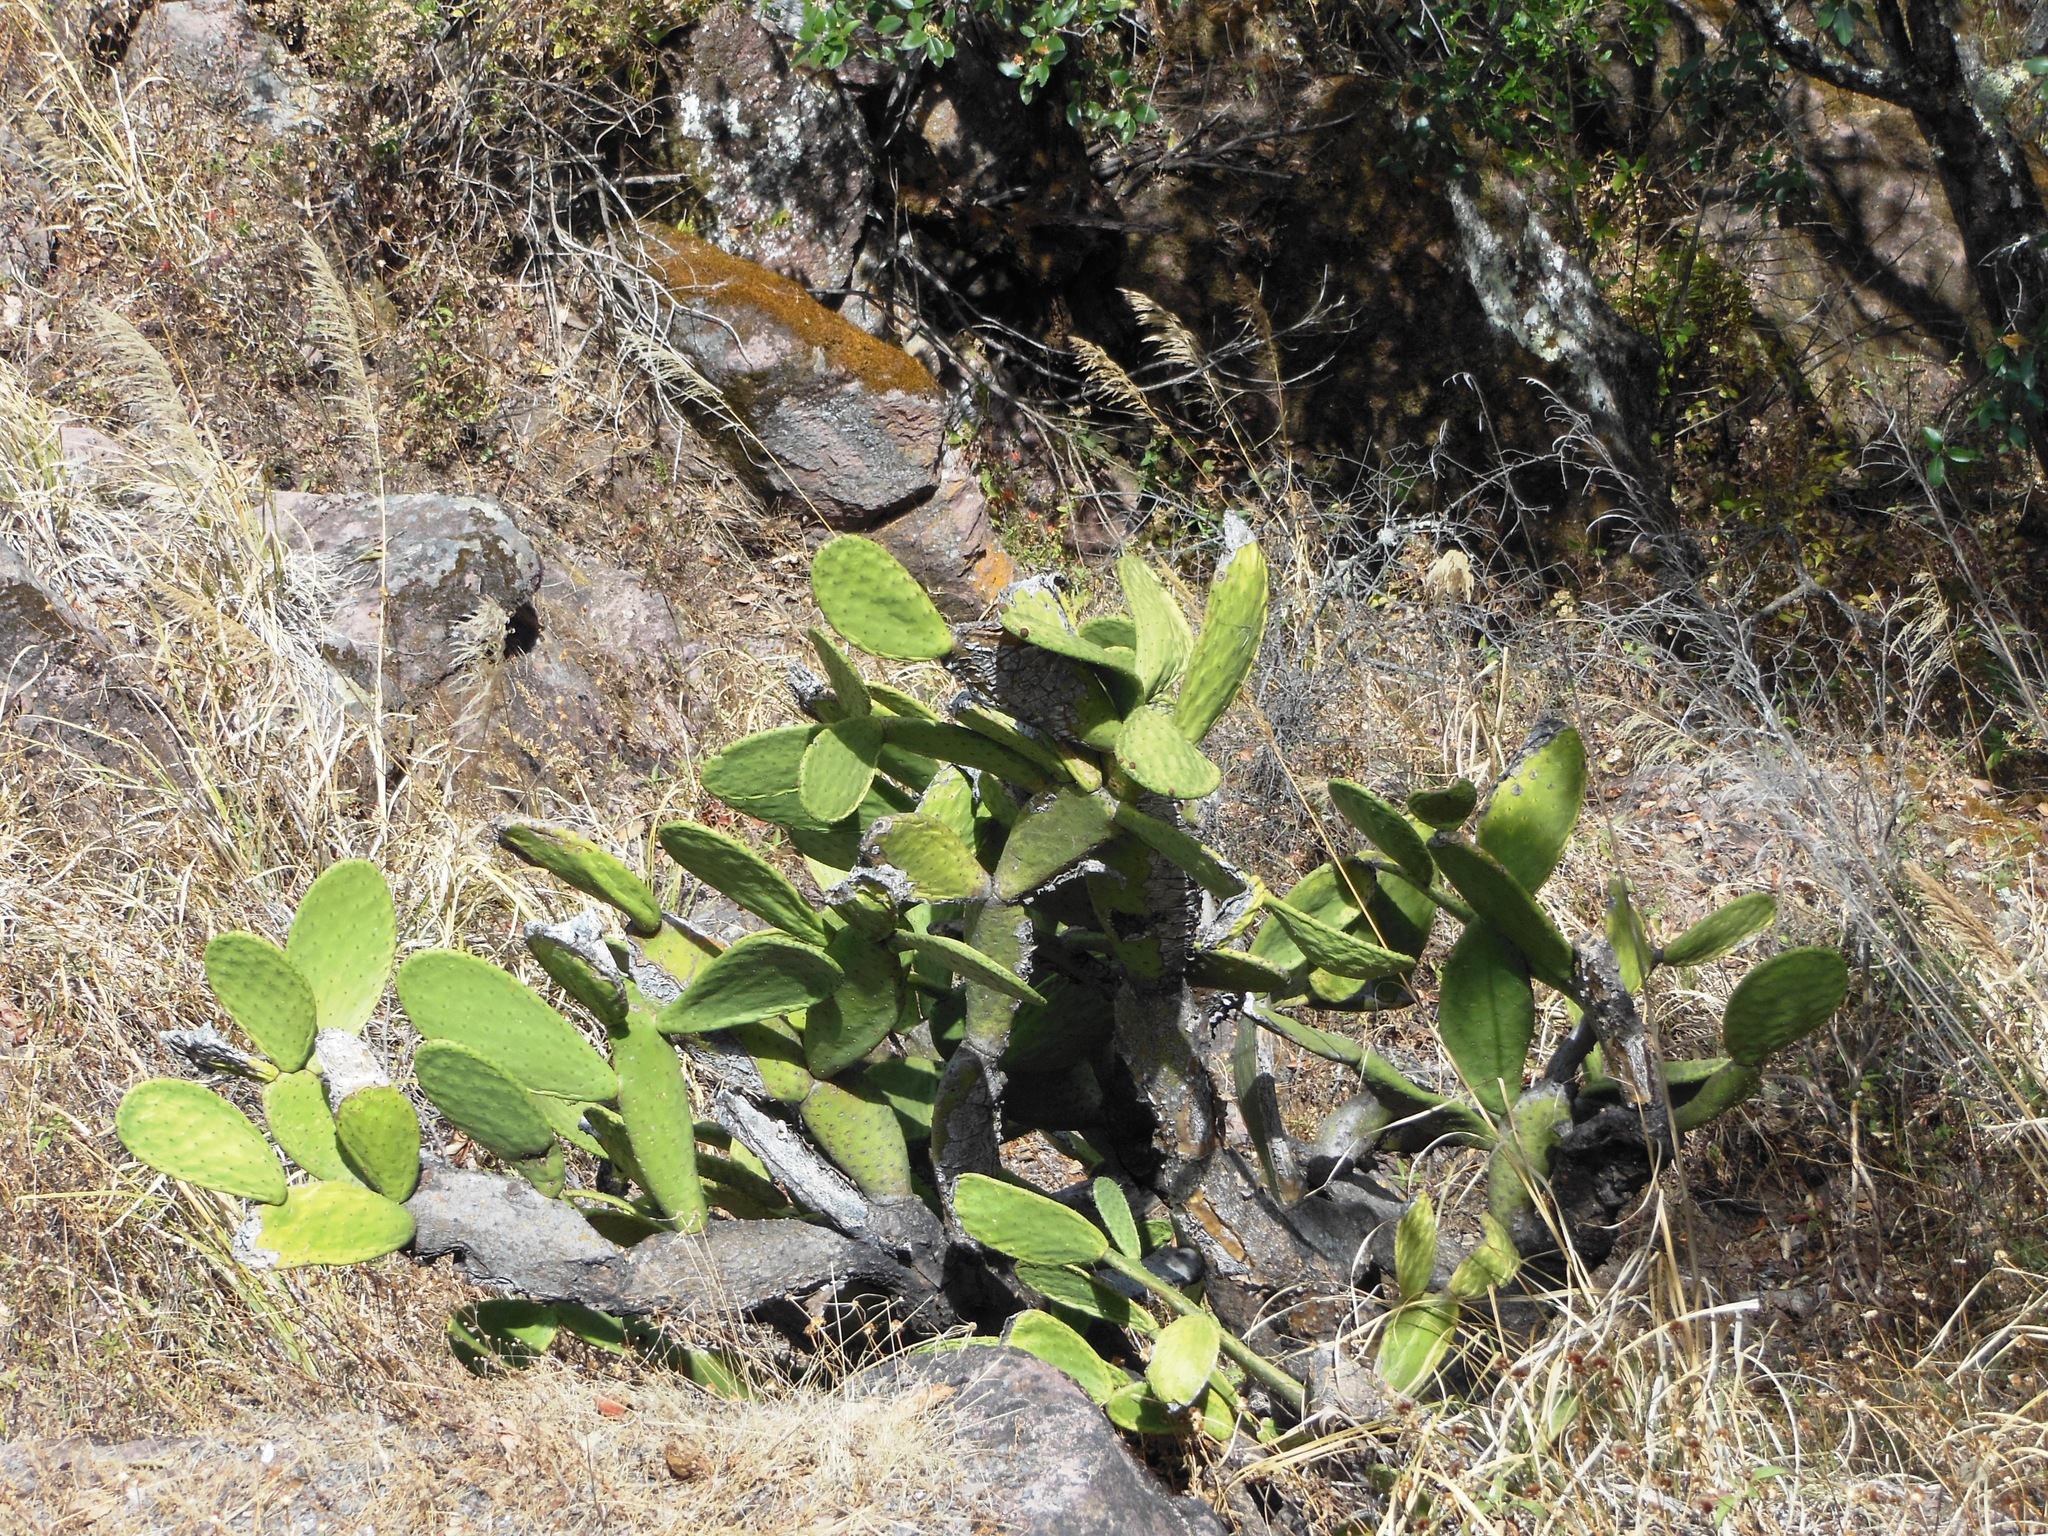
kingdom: Plantae
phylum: Tracheophyta
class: Magnoliopsida
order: Caryophyllales
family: Cactaceae
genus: Opuntia
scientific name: Opuntia ficus-indica
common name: Barbary fig
